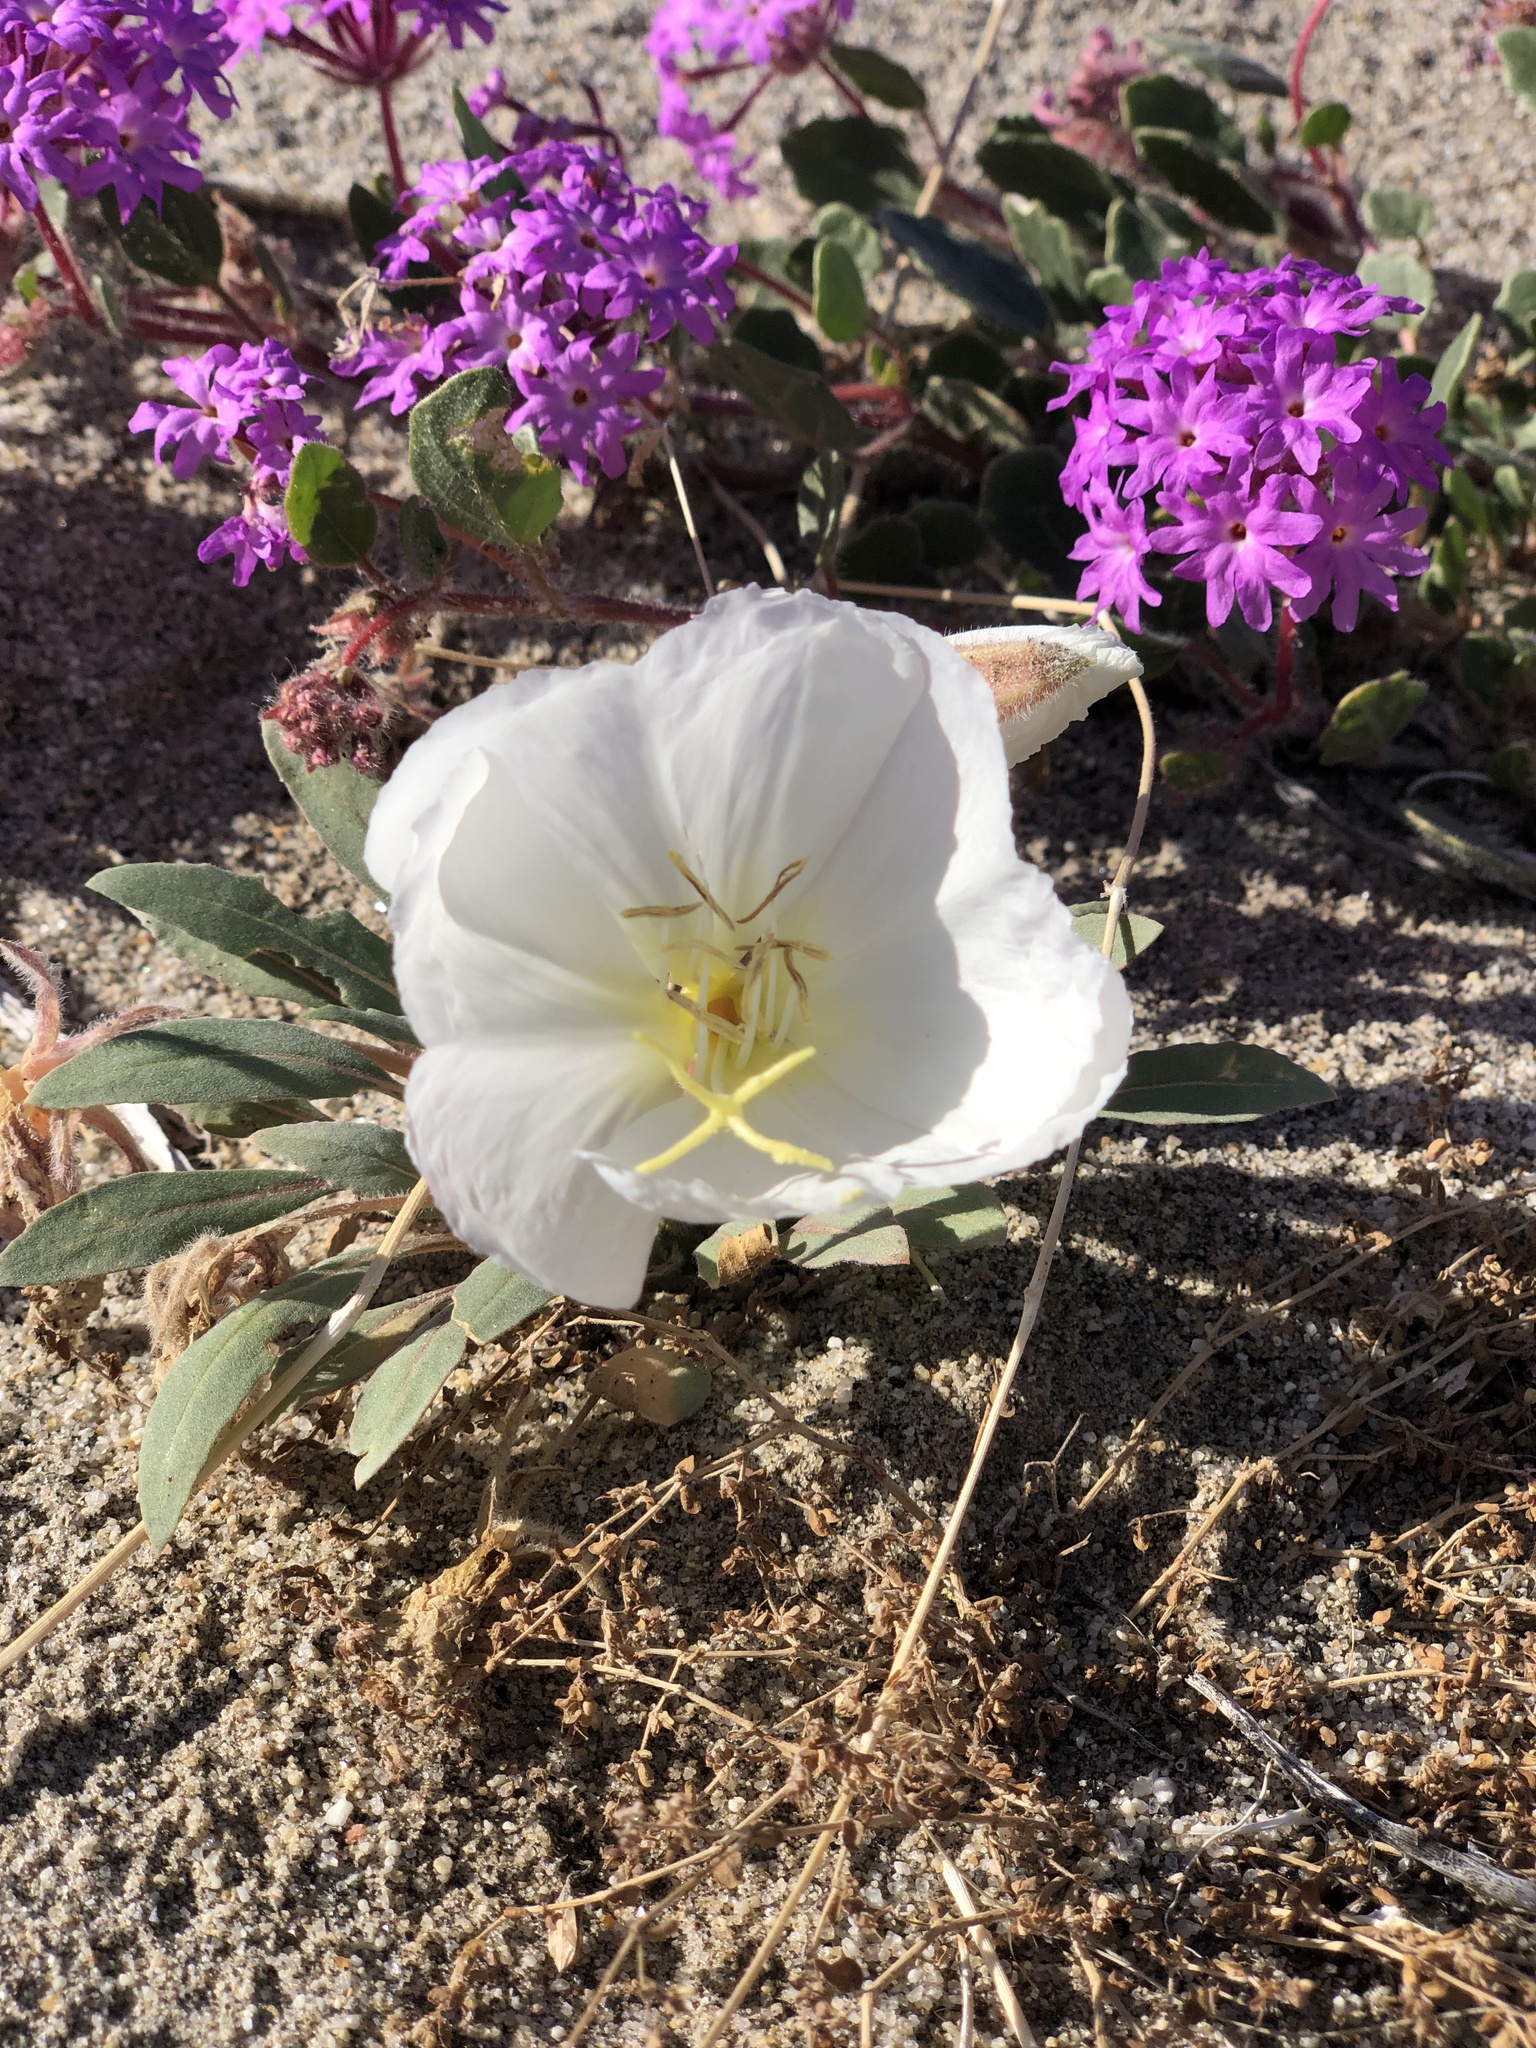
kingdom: Plantae
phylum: Tracheophyta
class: Magnoliopsida
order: Myrtales
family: Onagraceae
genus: Oenothera
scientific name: Oenothera deltoides
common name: Basket evening-primrose
